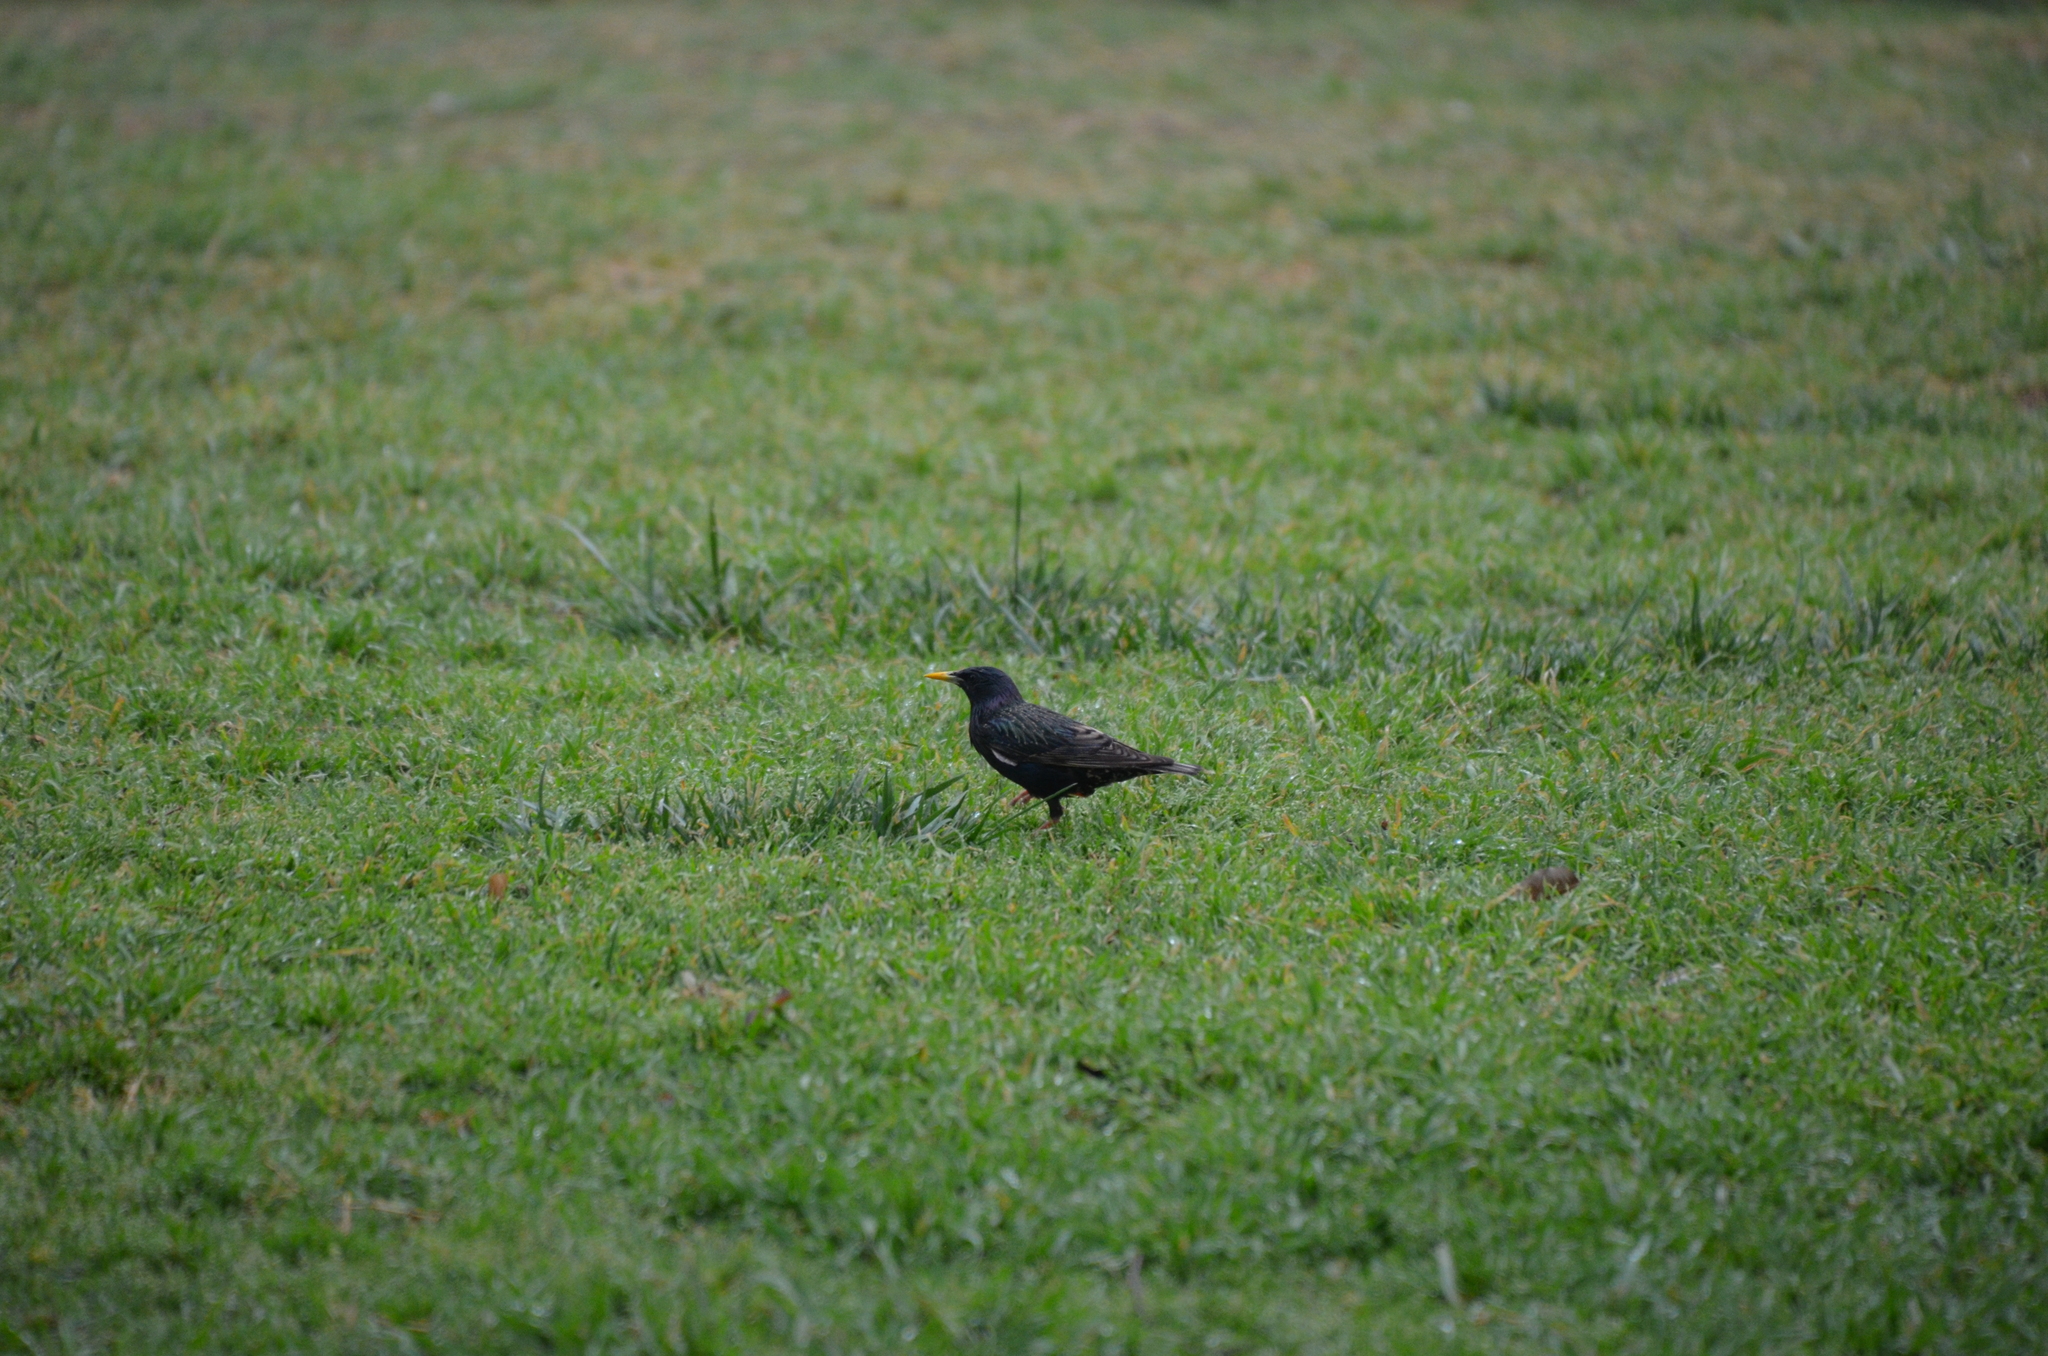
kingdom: Animalia
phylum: Chordata
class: Aves
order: Passeriformes
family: Sturnidae
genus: Sturnus
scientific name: Sturnus vulgaris
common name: Common starling
